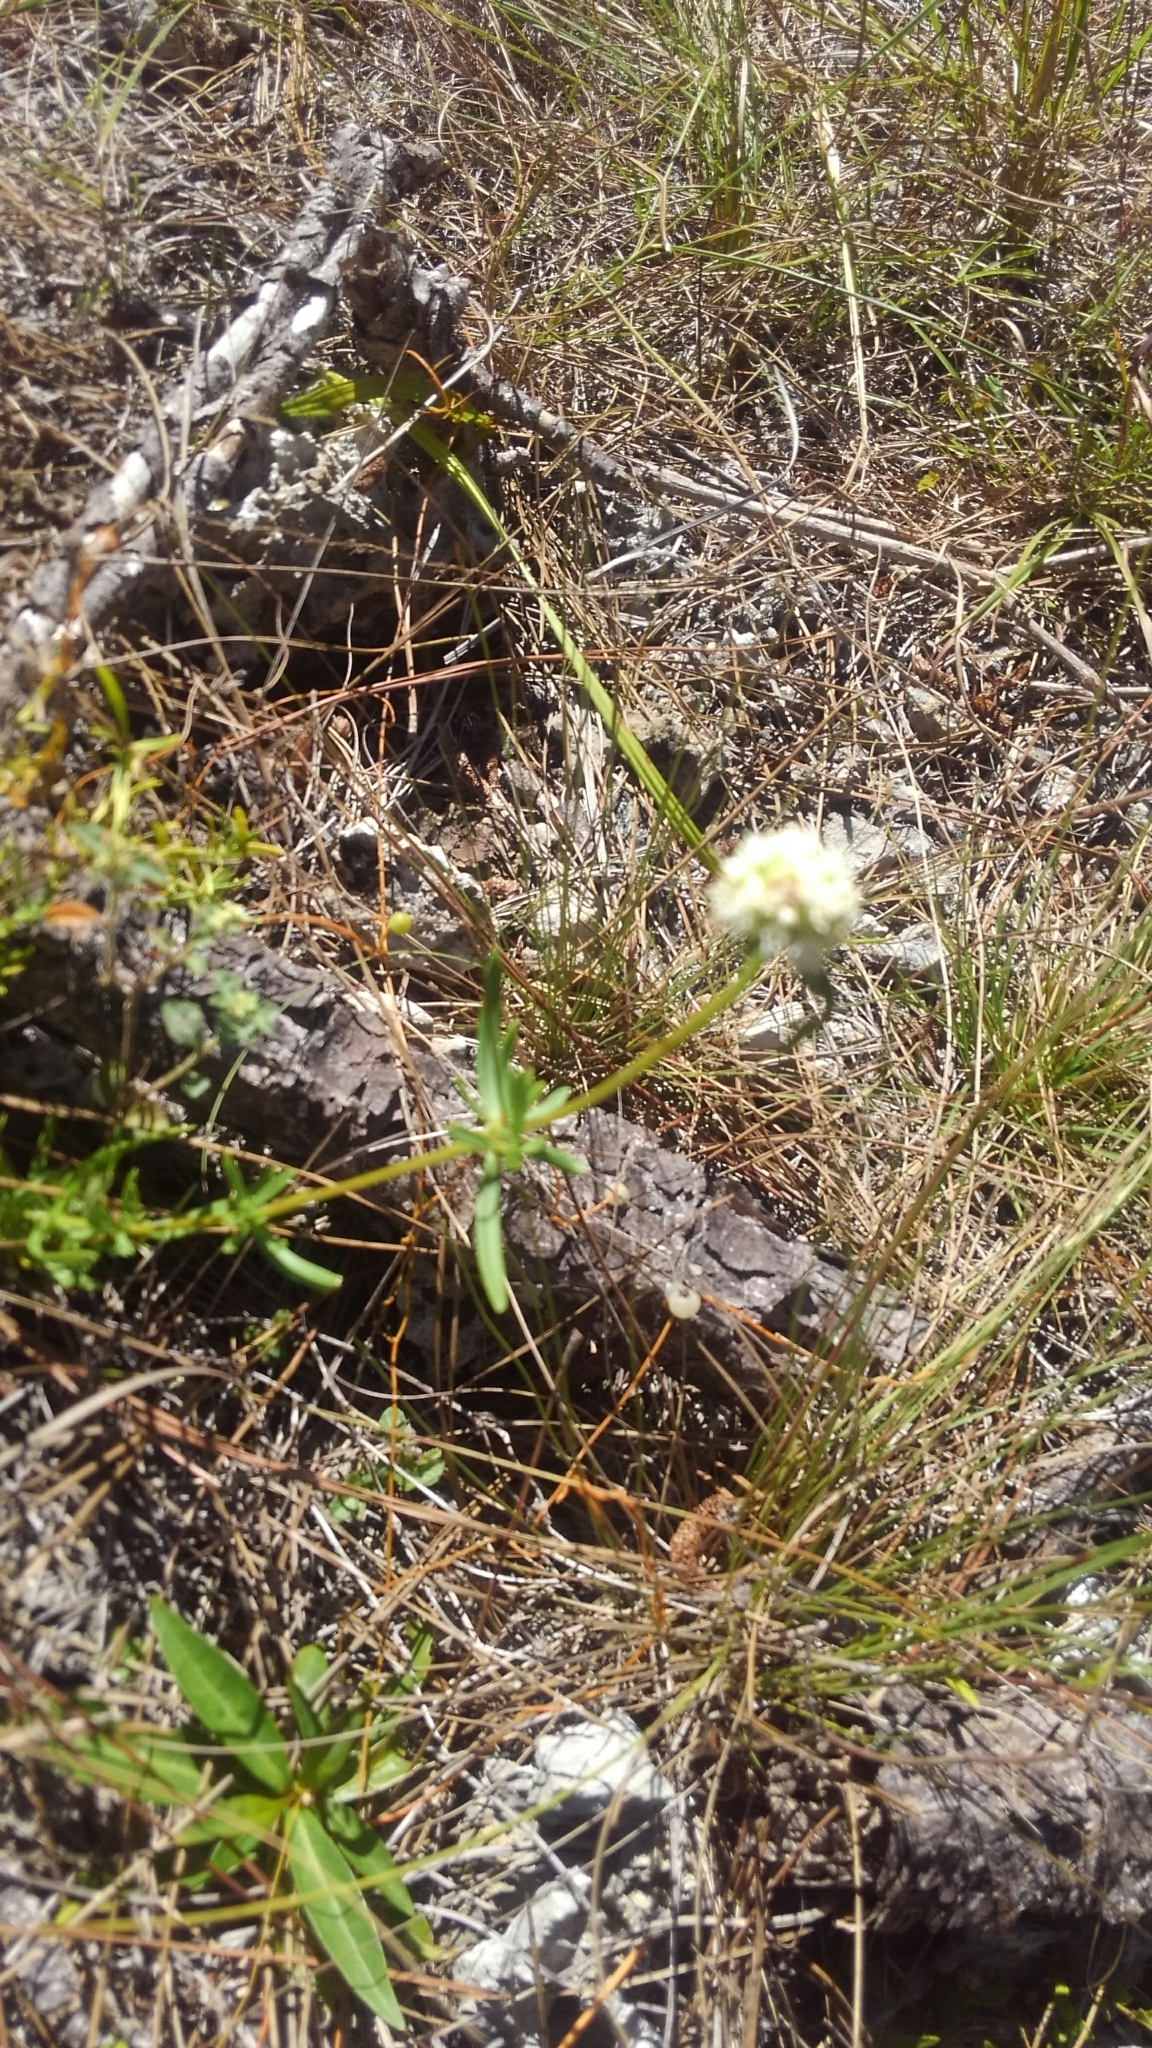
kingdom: Plantae
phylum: Tracheophyta
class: Magnoliopsida
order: Gentianales
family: Rubiaceae
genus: Spermacoce
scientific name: Spermacoce neoterminalis
